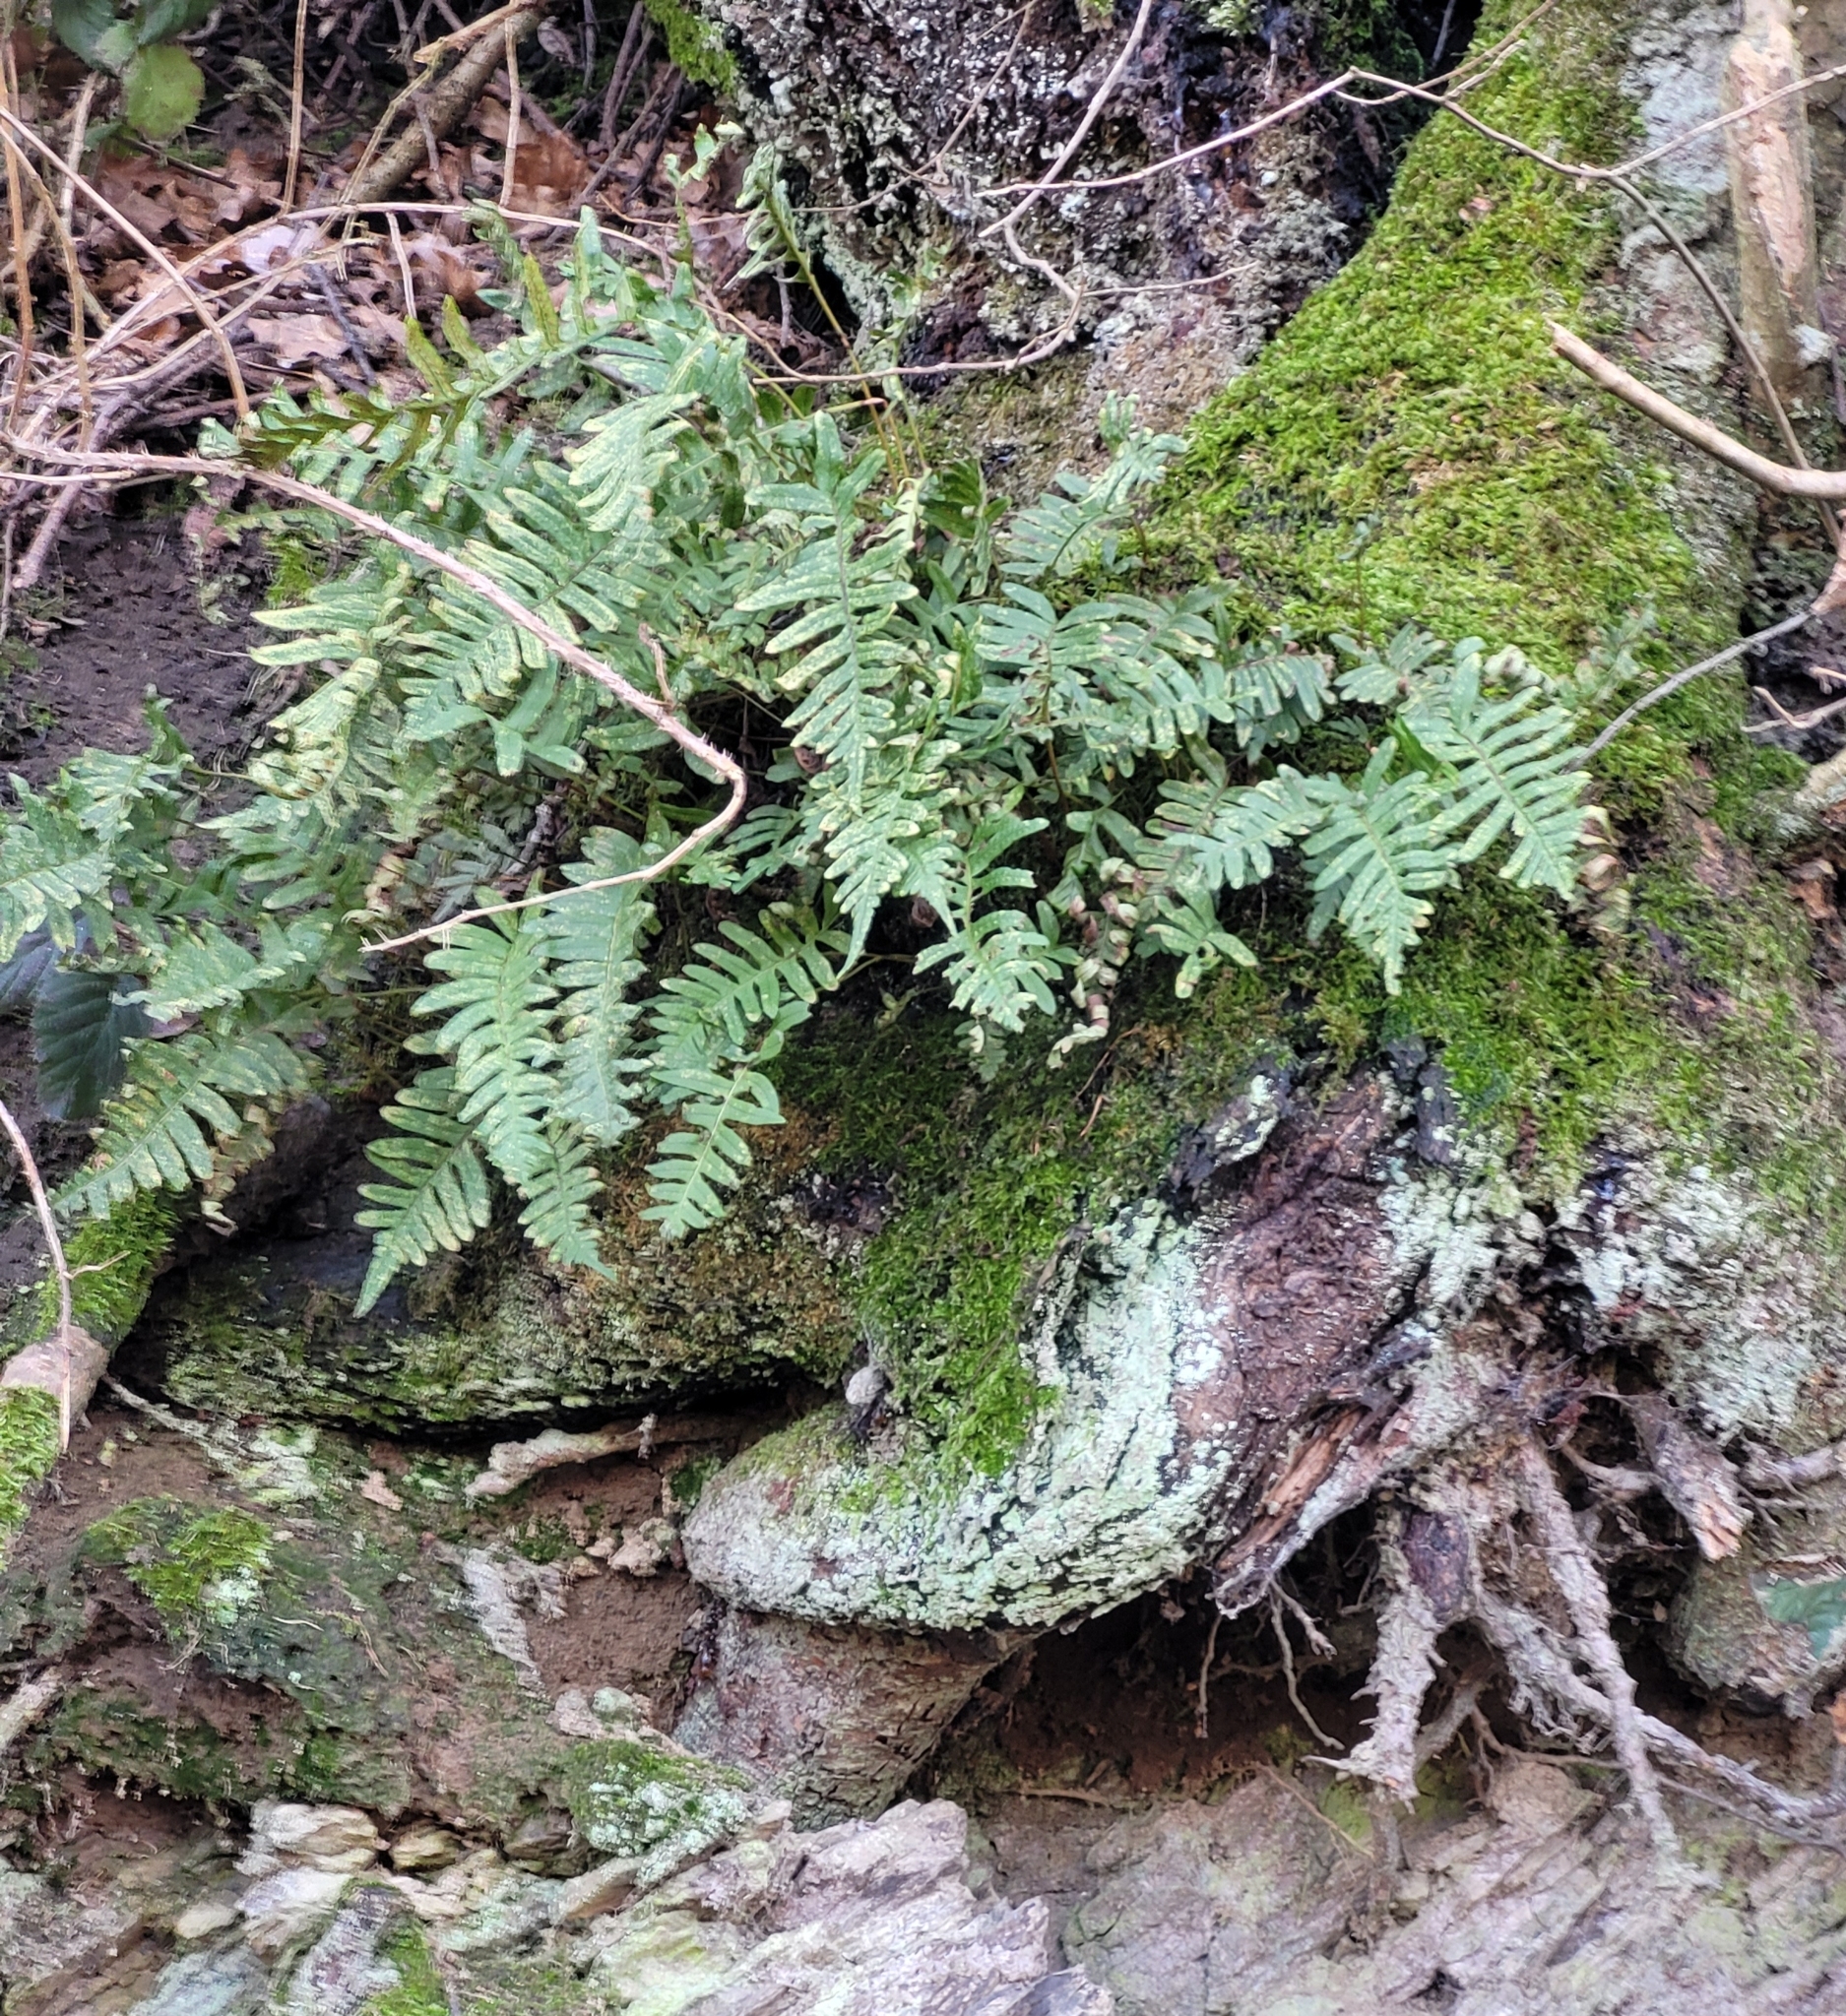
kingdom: Plantae
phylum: Tracheophyta
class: Polypodiopsida
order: Polypodiales
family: Polypodiaceae
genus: Polypodium
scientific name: Polypodium vulgare
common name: Common polypody
